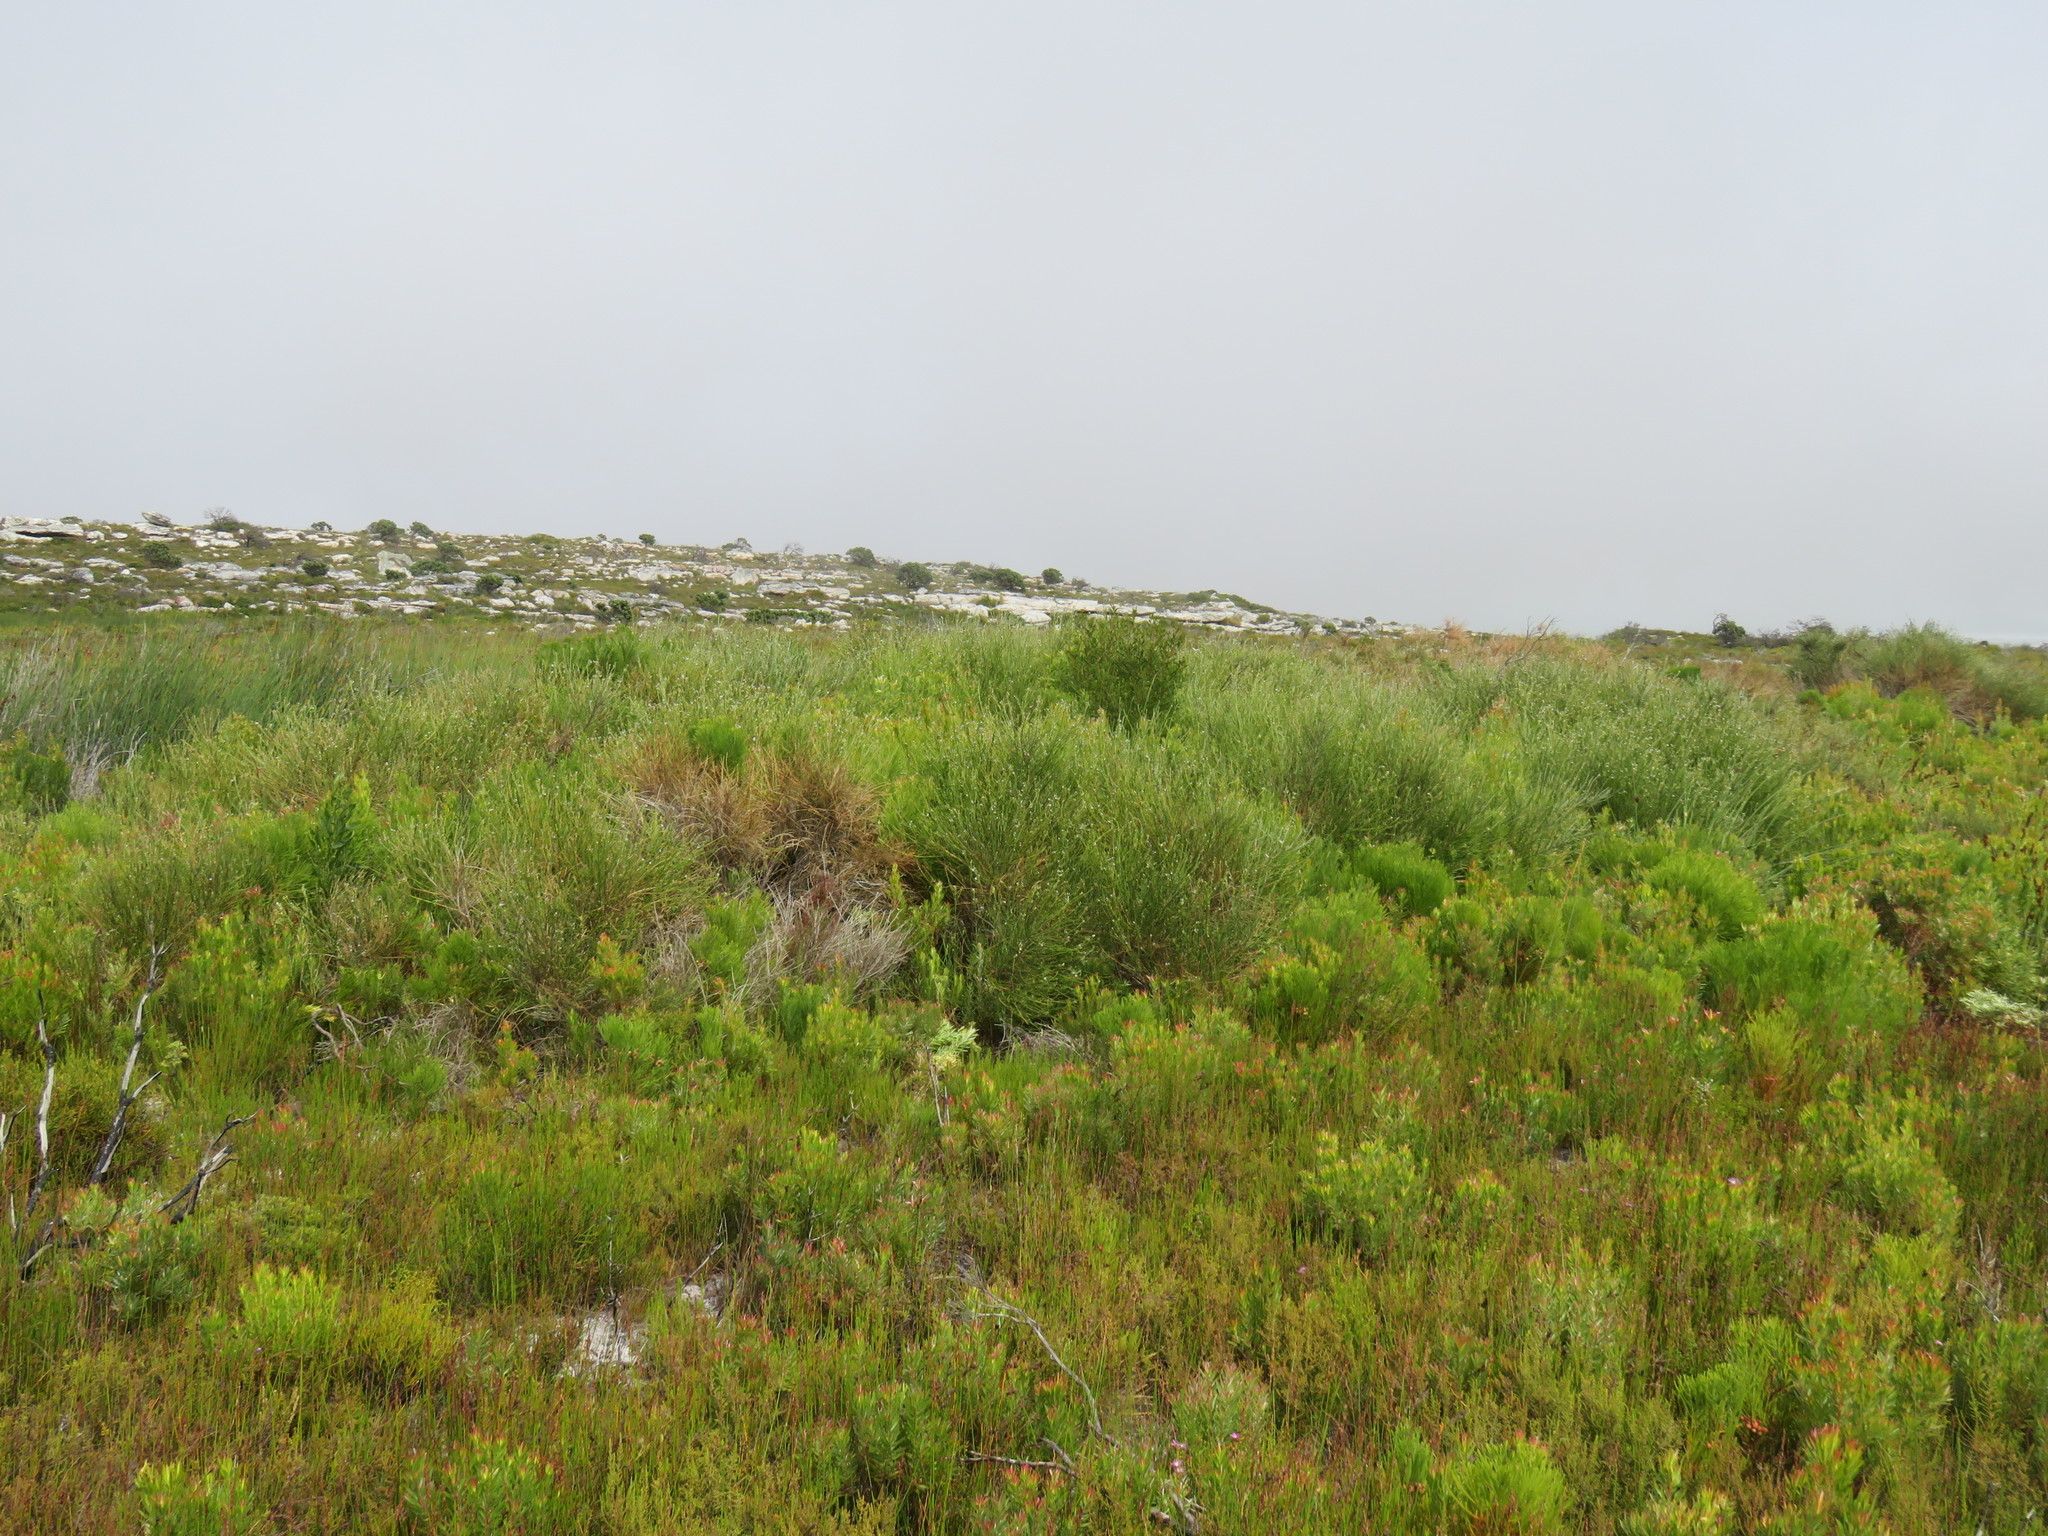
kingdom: Plantae
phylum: Tracheophyta
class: Magnoliopsida
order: Fabales
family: Fabaceae
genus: Psoralea
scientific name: Psoralea aphylla
